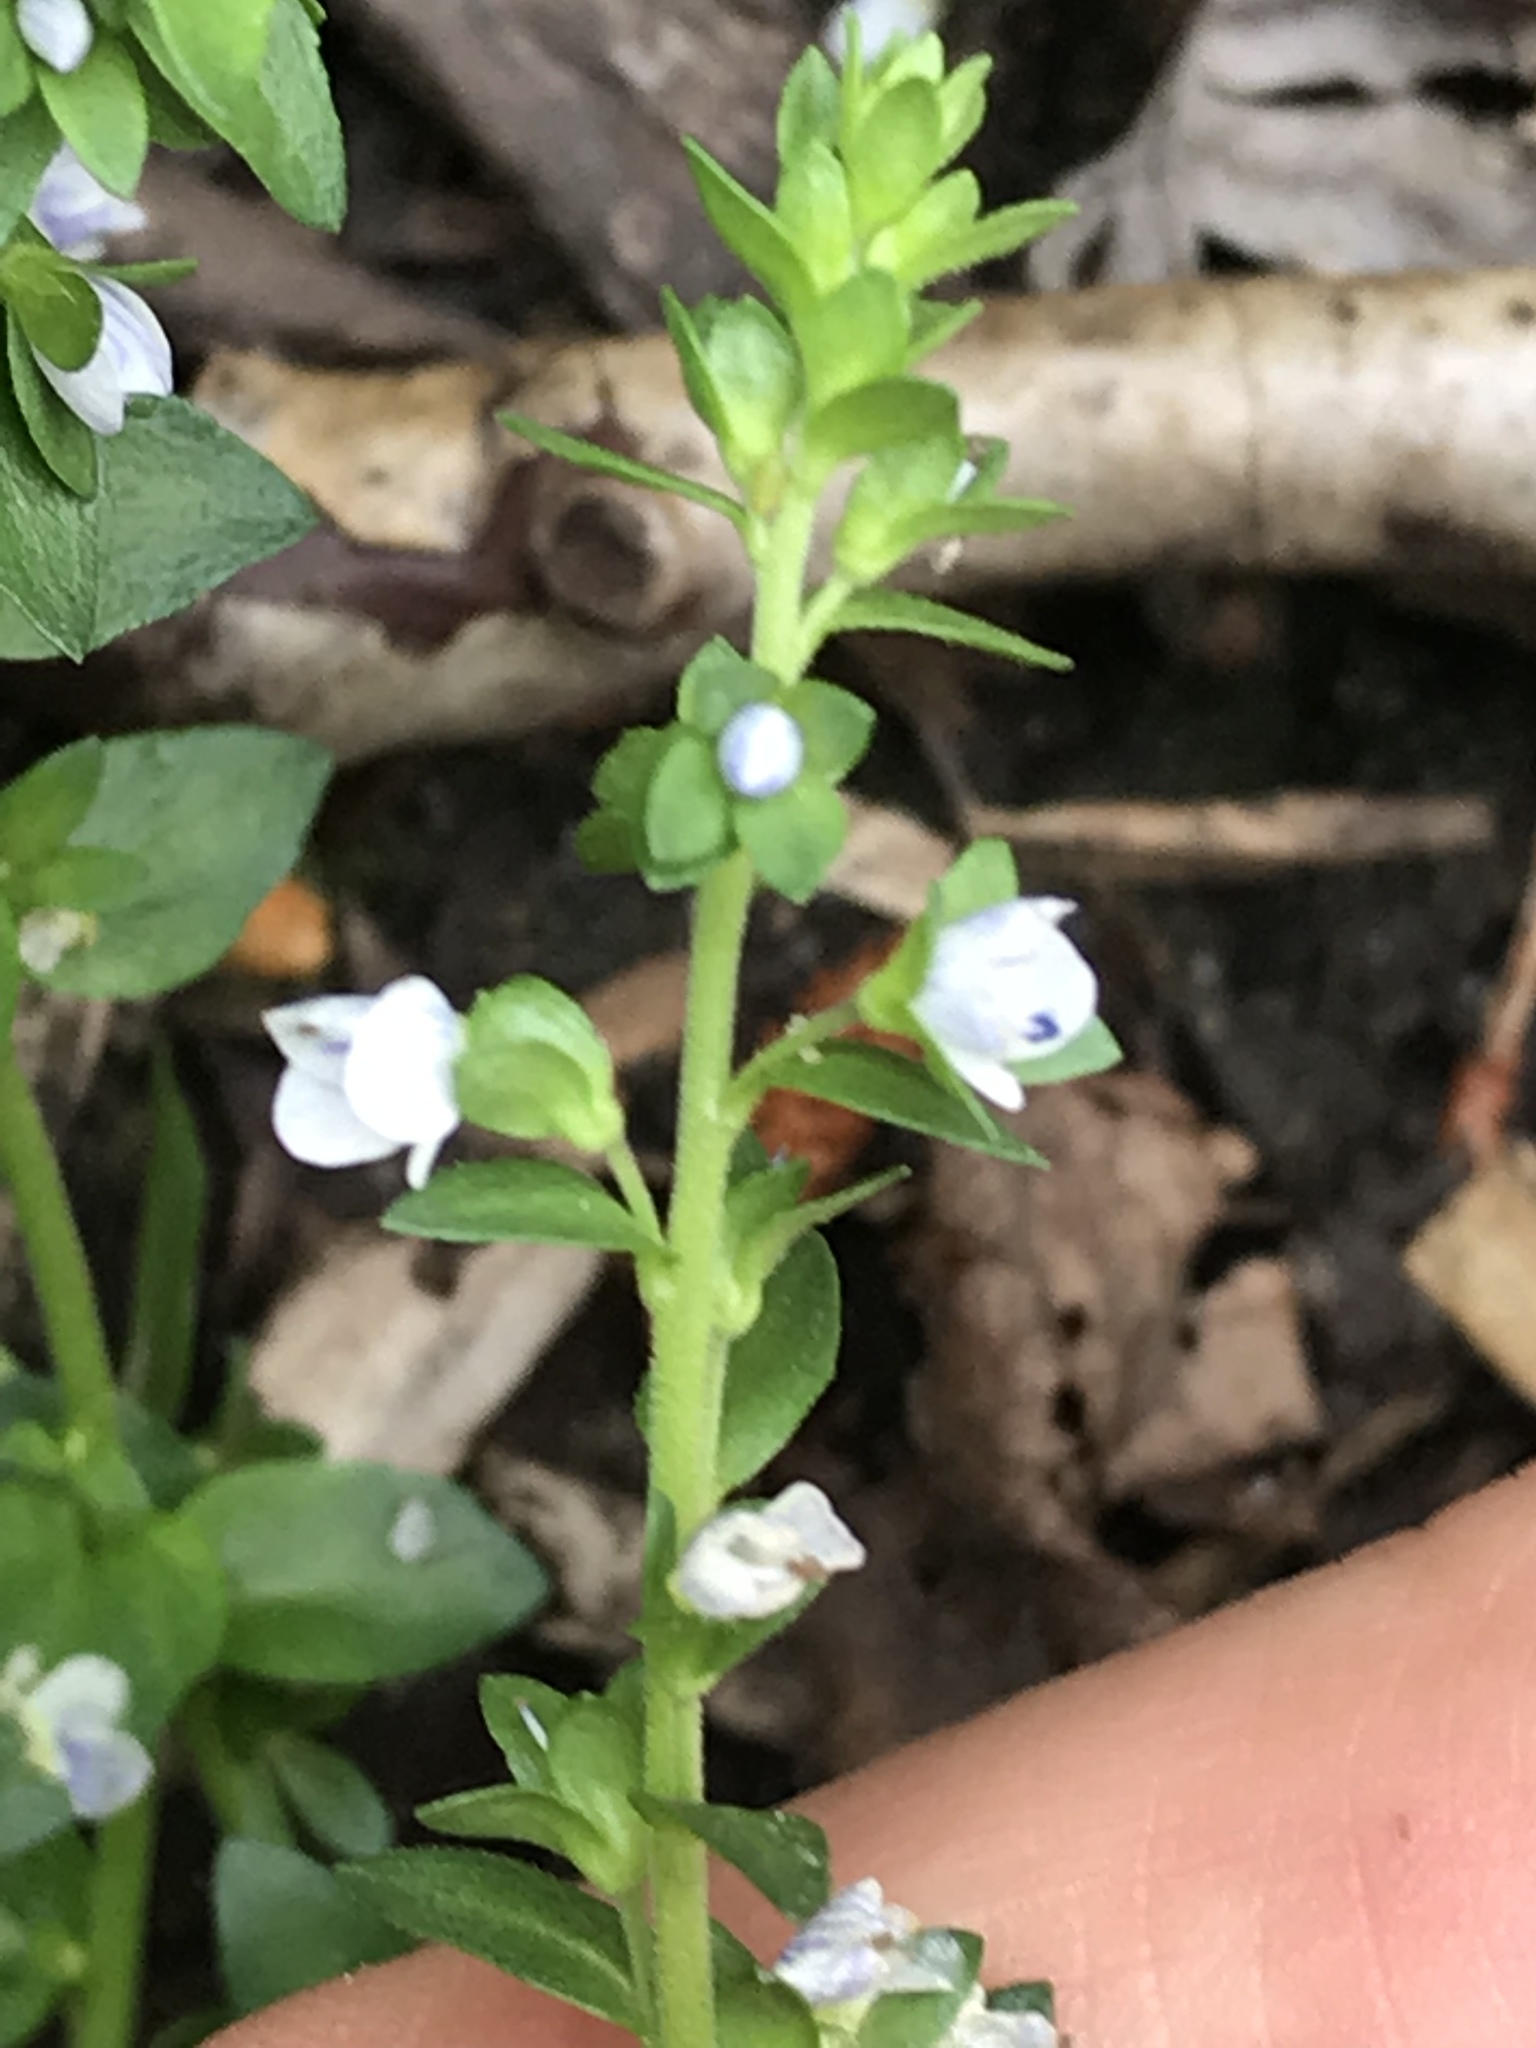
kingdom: Plantae
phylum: Tracheophyta
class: Magnoliopsida
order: Lamiales
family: Plantaginaceae
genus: Veronica
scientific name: Veronica serpyllifolia
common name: Thyme-leaved speedwell
